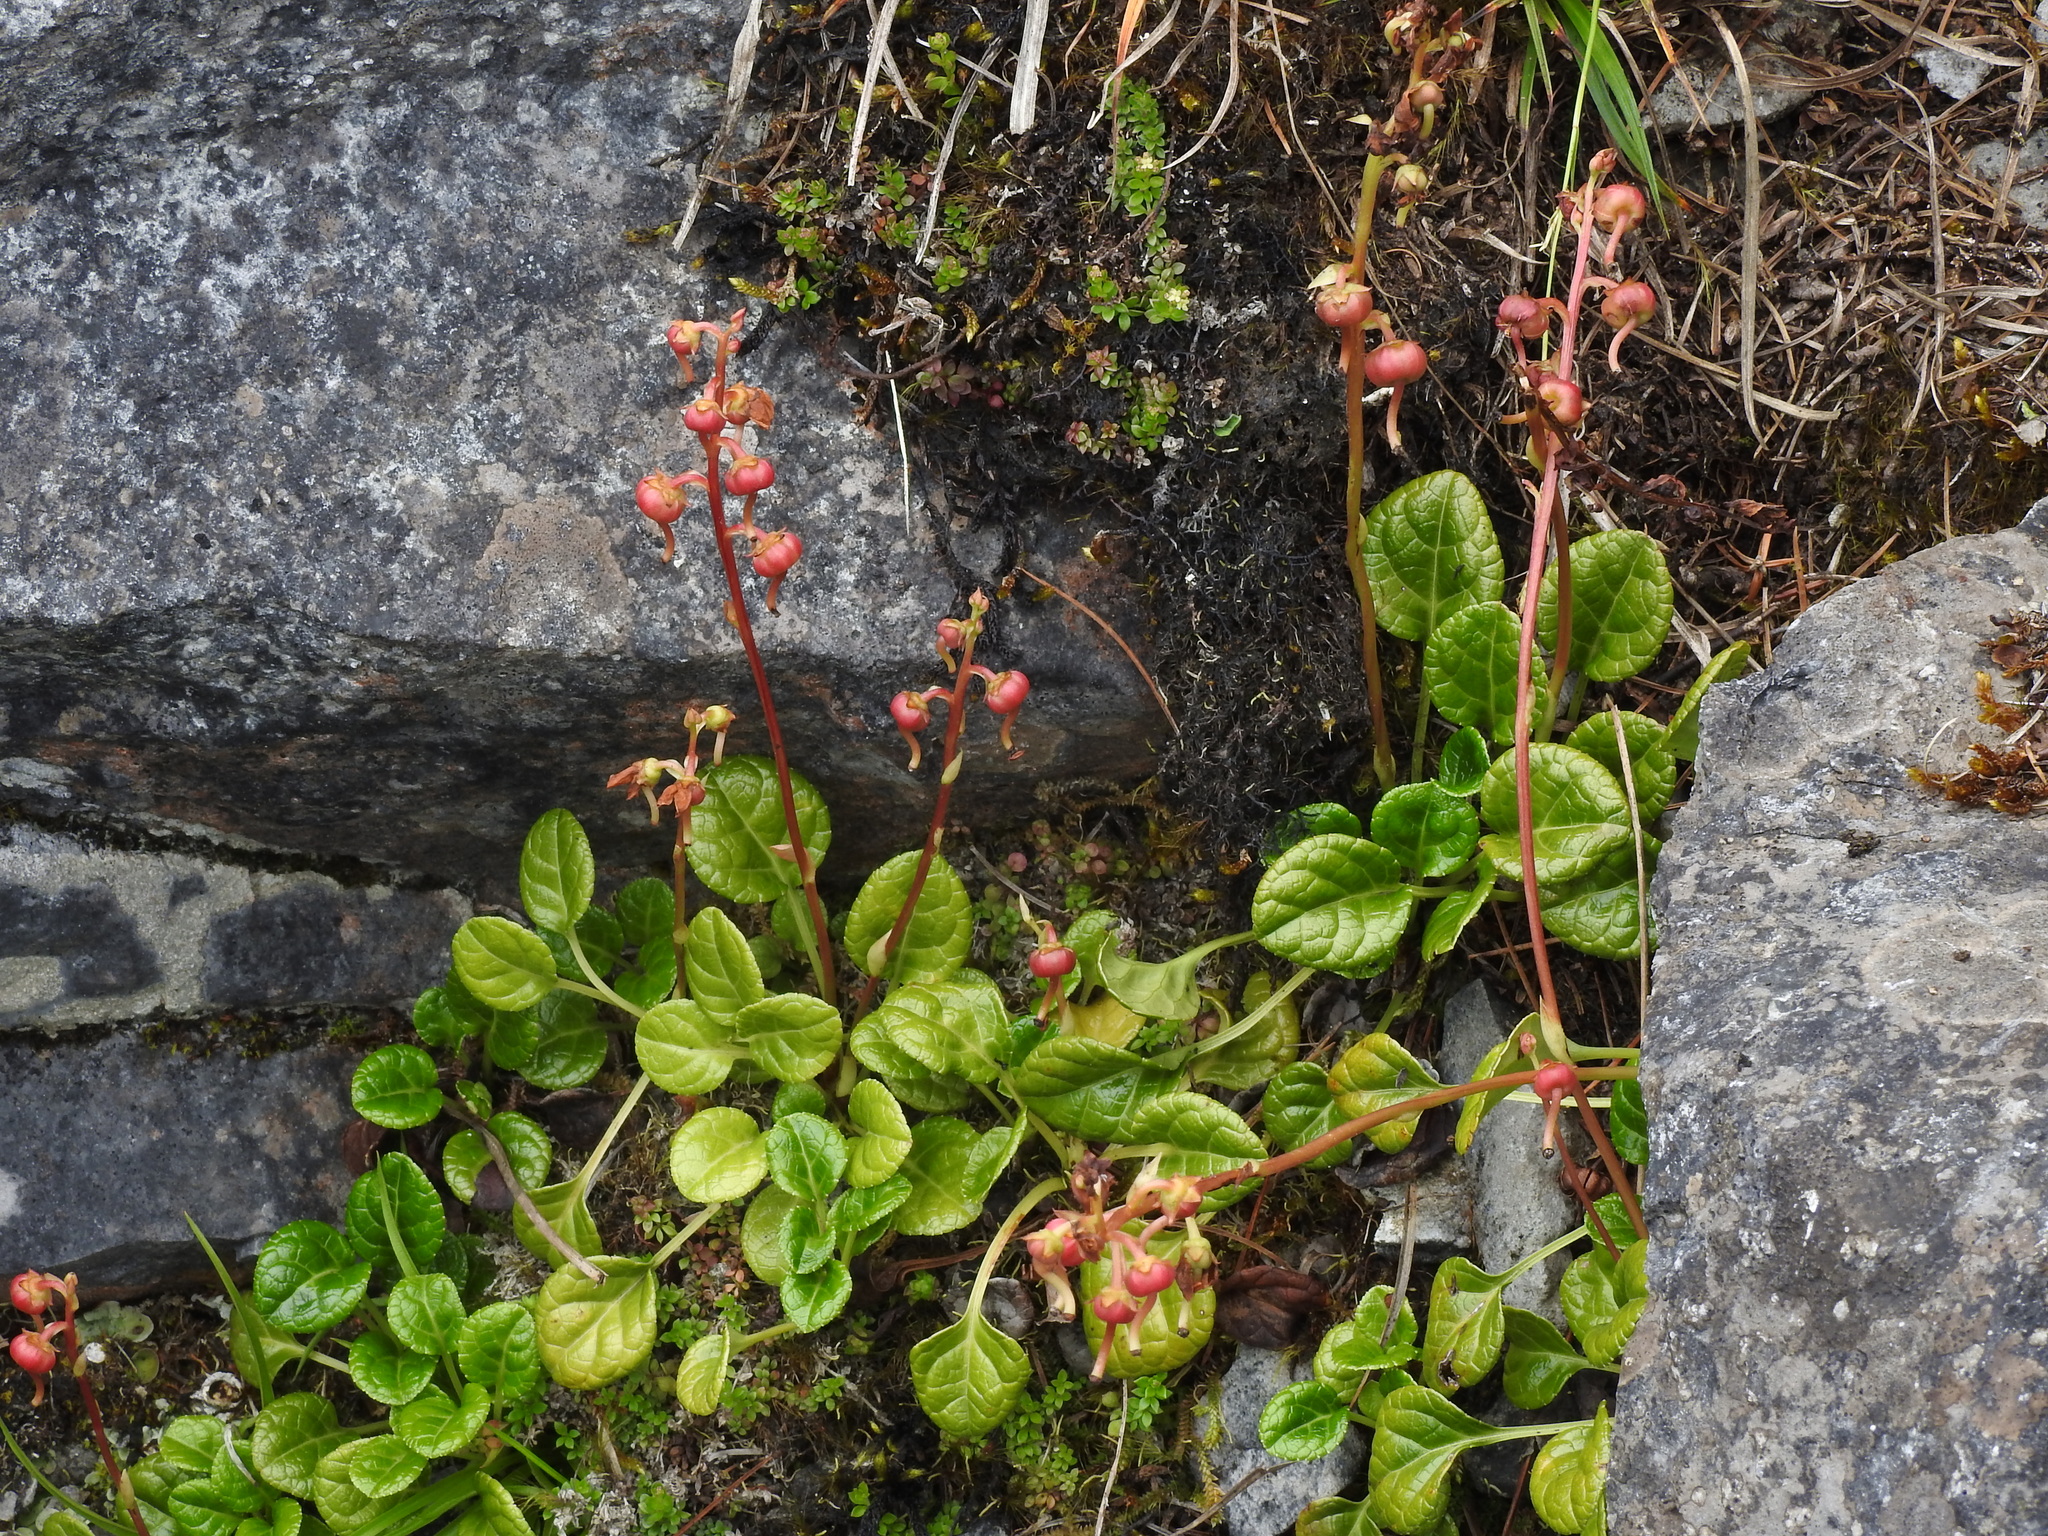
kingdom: Plantae
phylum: Tracheophyta
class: Magnoliopsida
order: Ericales
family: Ericaceae
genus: Pyrola
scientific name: Pyrola morrisonensis
